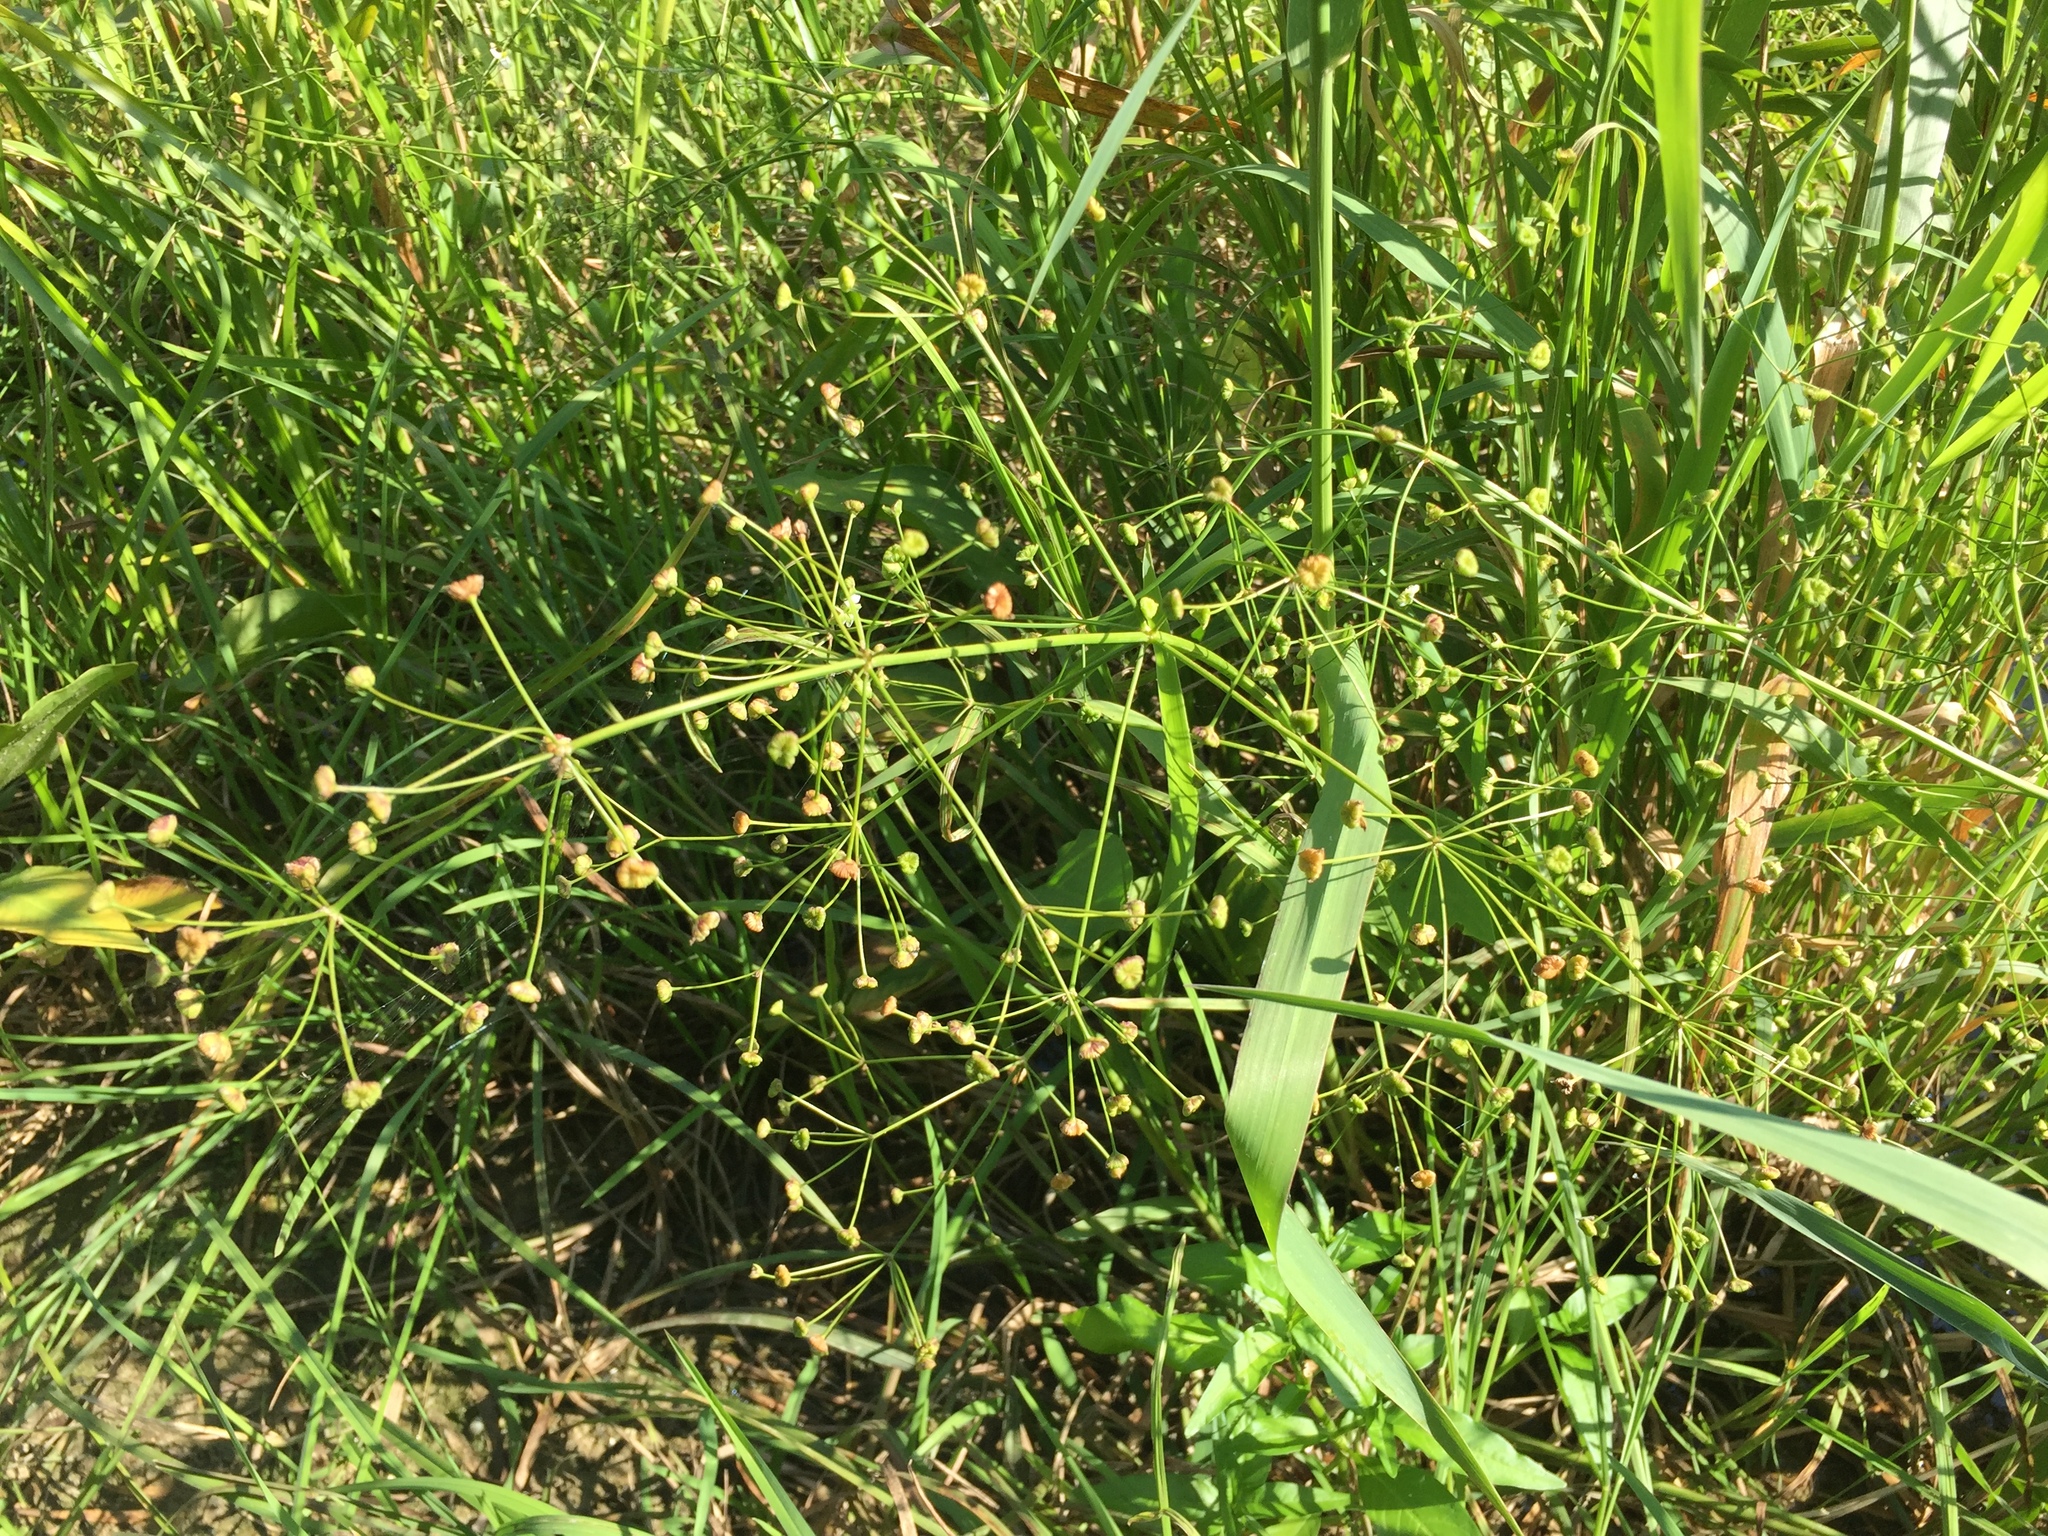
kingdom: Plantae
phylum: Tracheophyta
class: Liliopsida
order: Alismatales
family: Alismataceae
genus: Alisma
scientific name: Alisma plantago-aquatica
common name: Water-plantain
